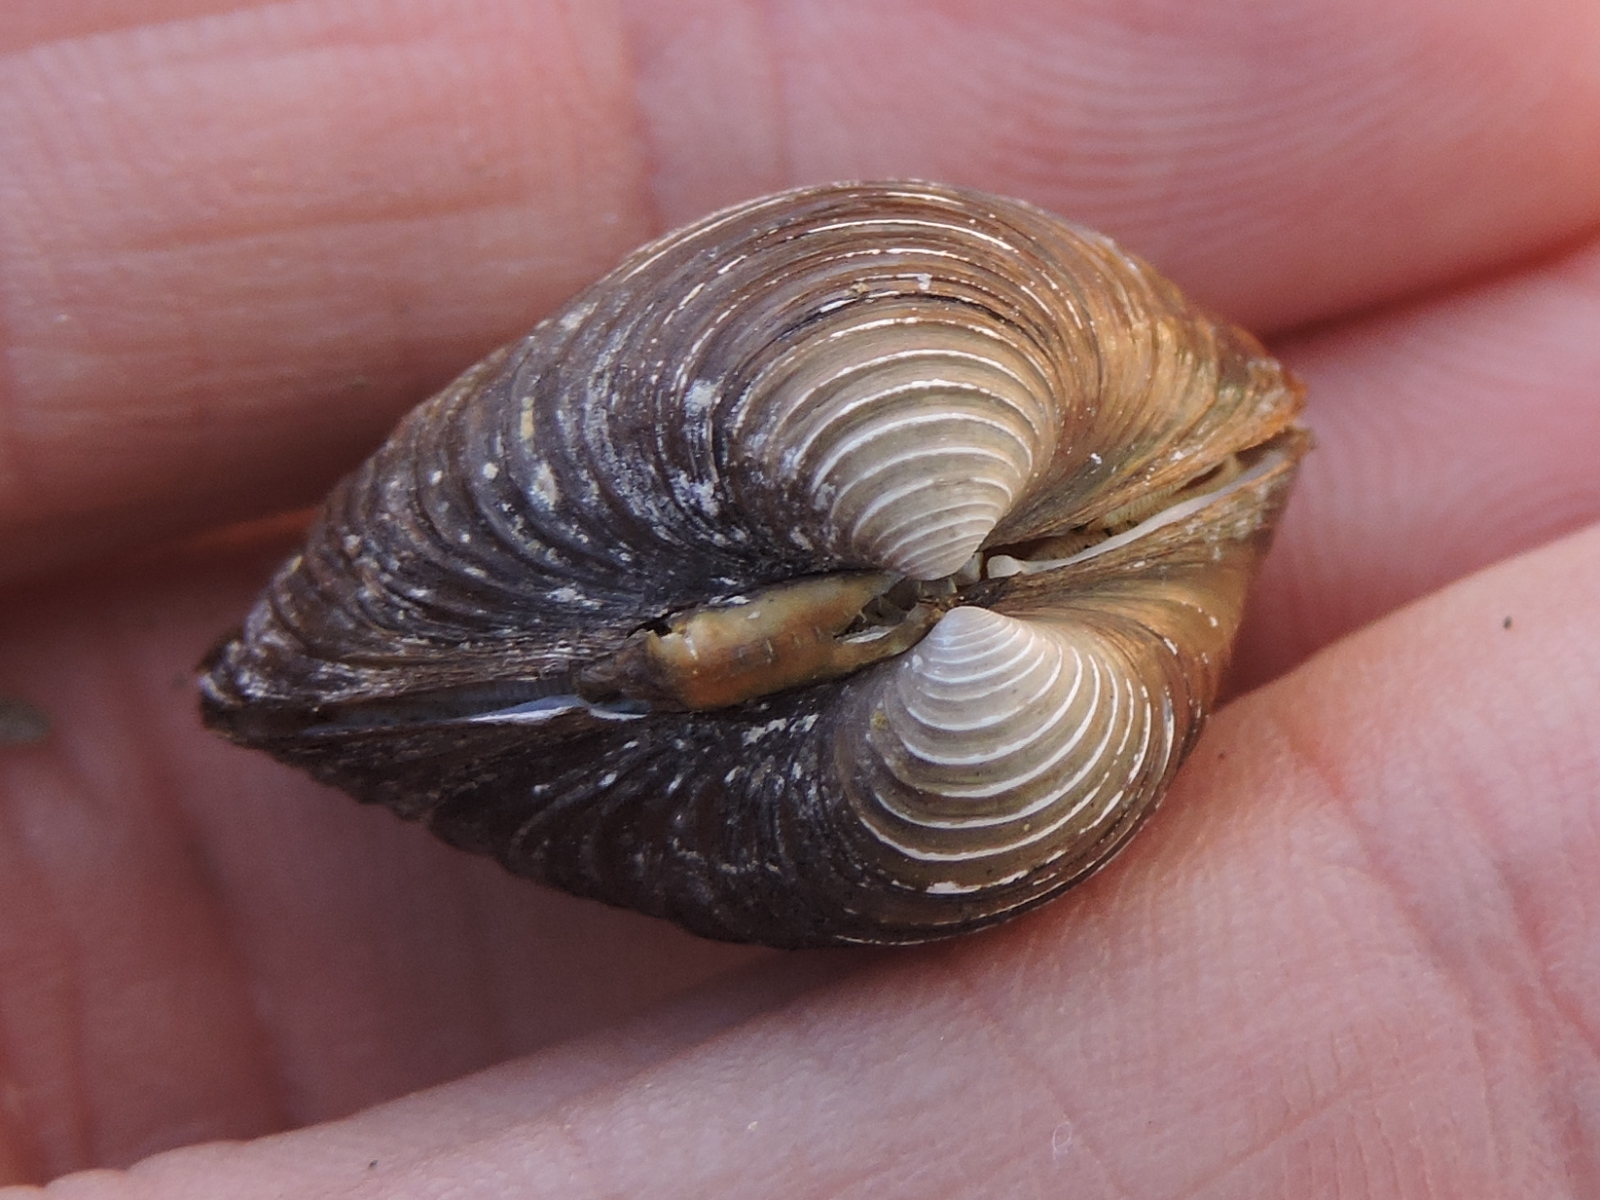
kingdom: Animalia
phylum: Mollusca
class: Bivalvia
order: Venerida
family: Cyrenidae
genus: Corbicula
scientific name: Corbicula fluminea
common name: Asian clam
